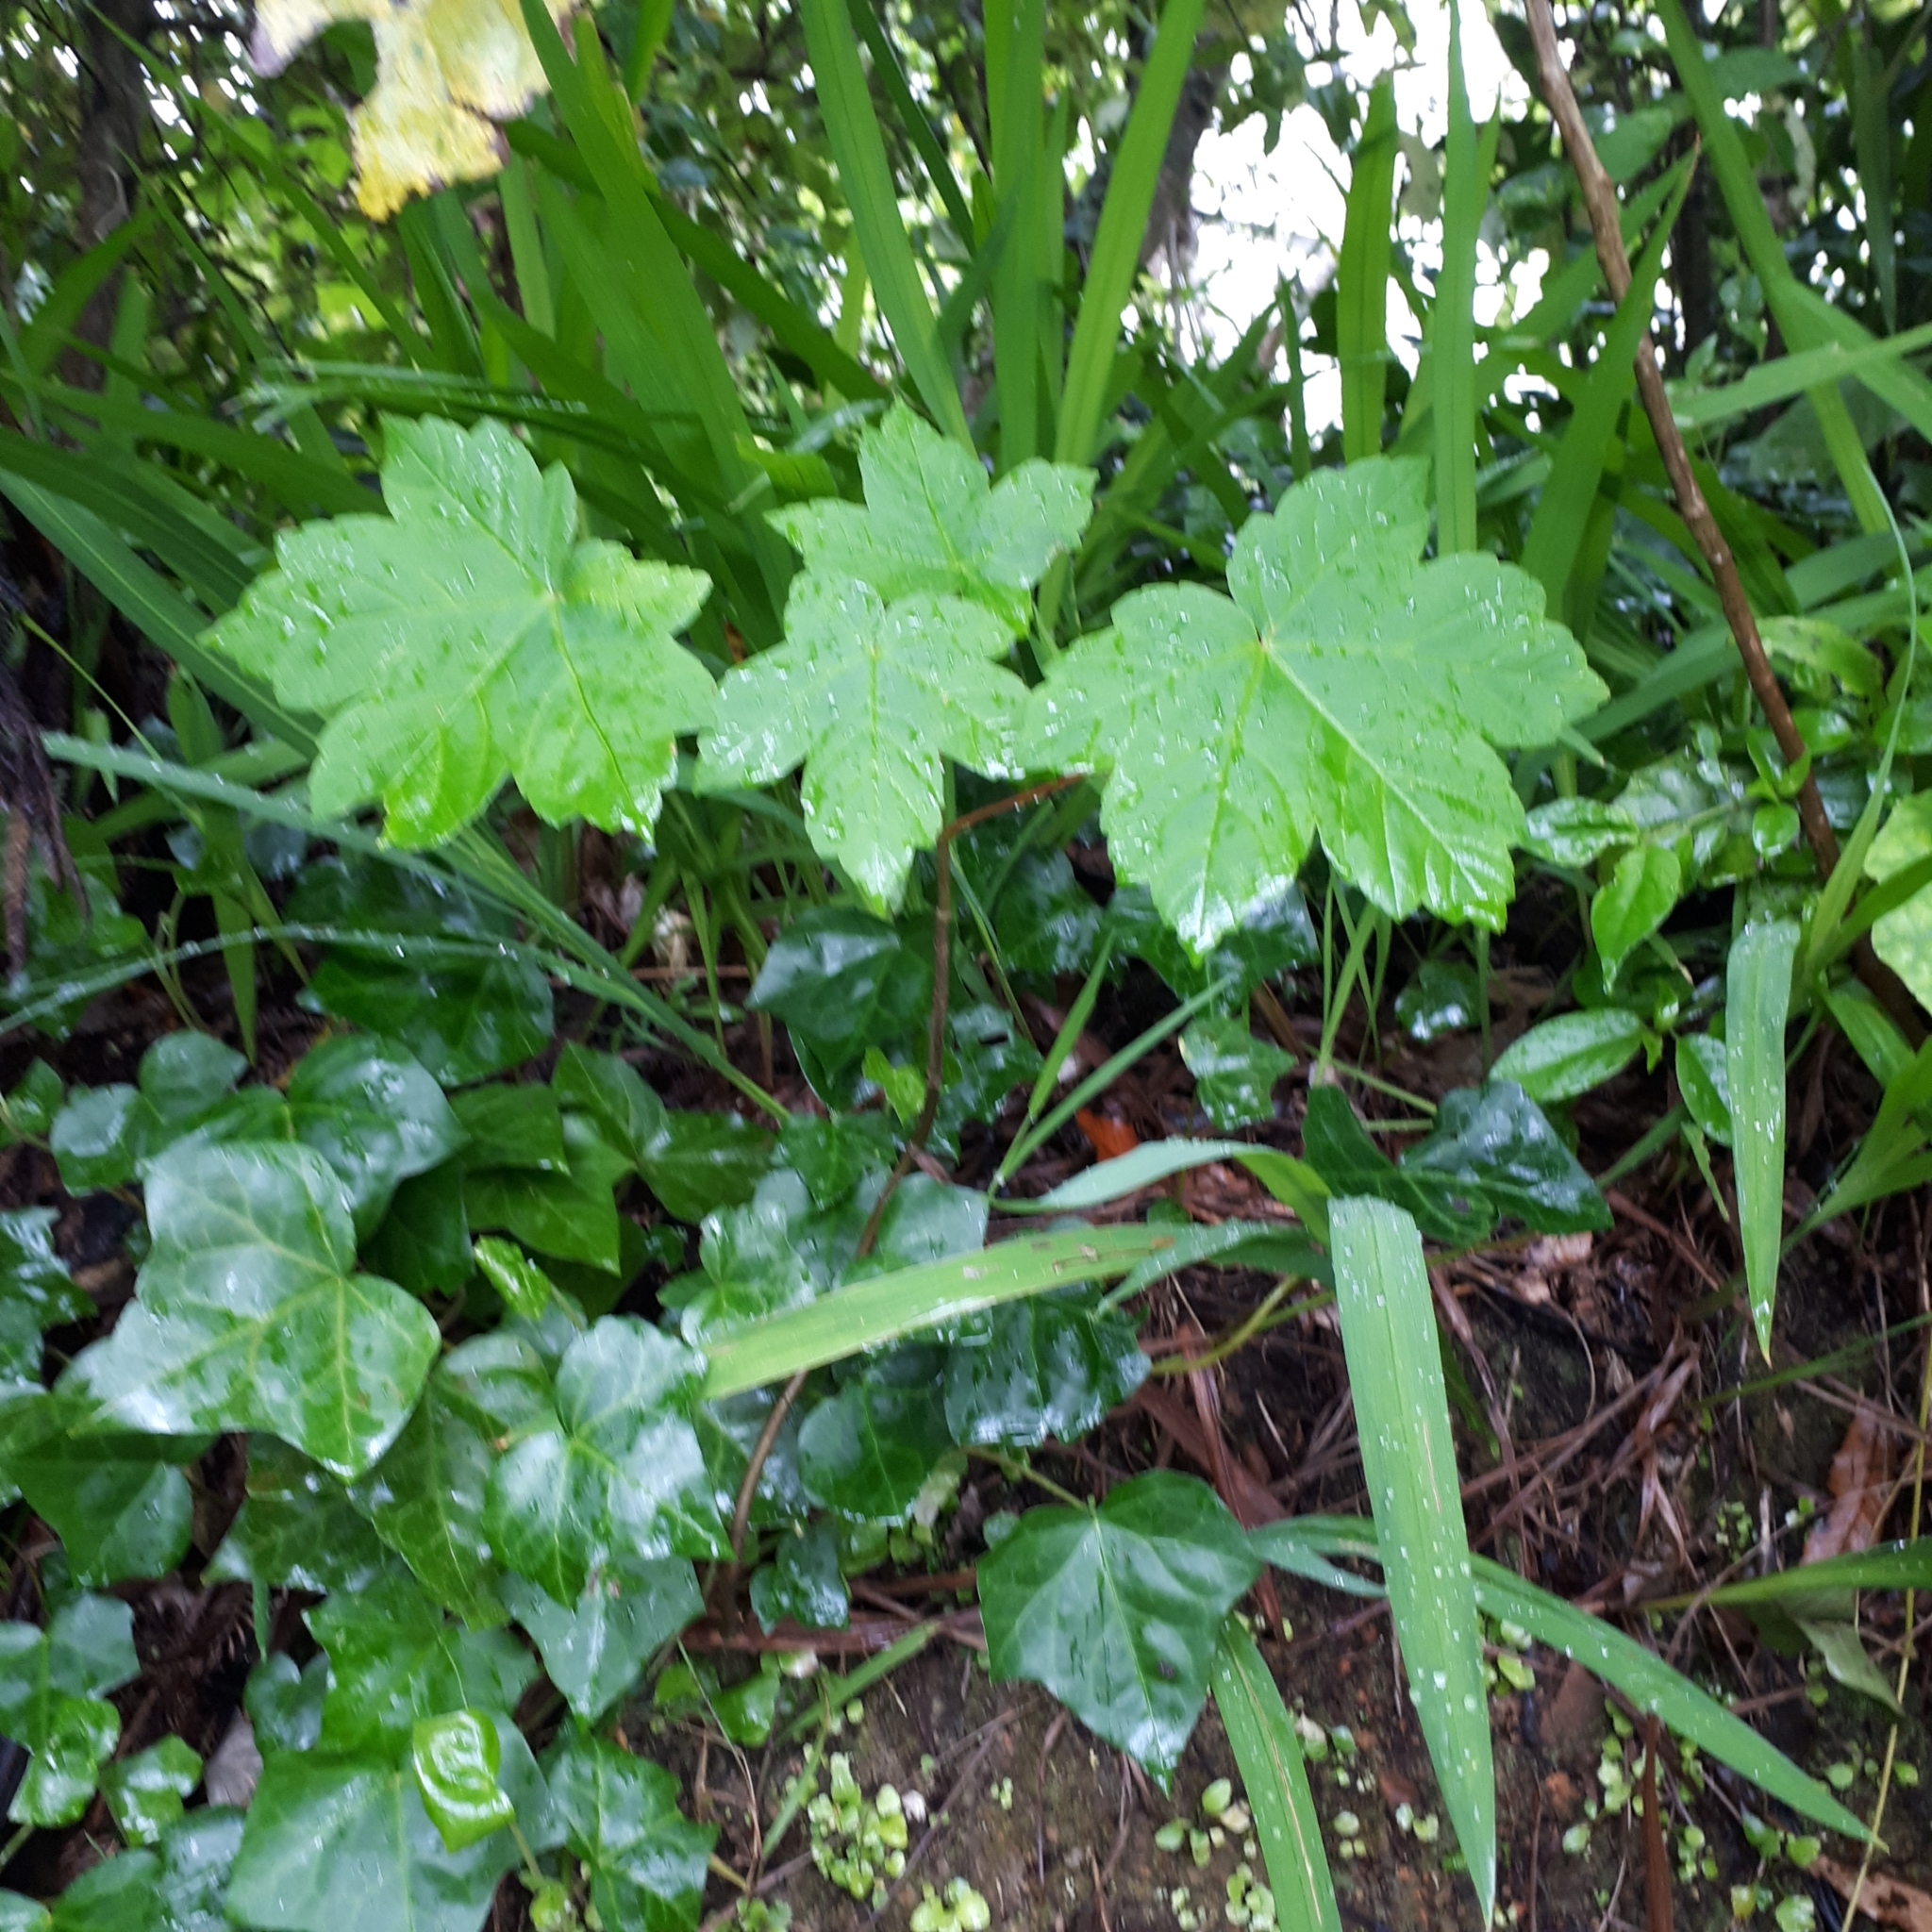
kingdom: Plantae
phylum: Tracheophyta
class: Magnoliopsida
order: Sapindales
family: Sapindaceae
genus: Acer
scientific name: Acer pseudoplatanus
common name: Sycamore
